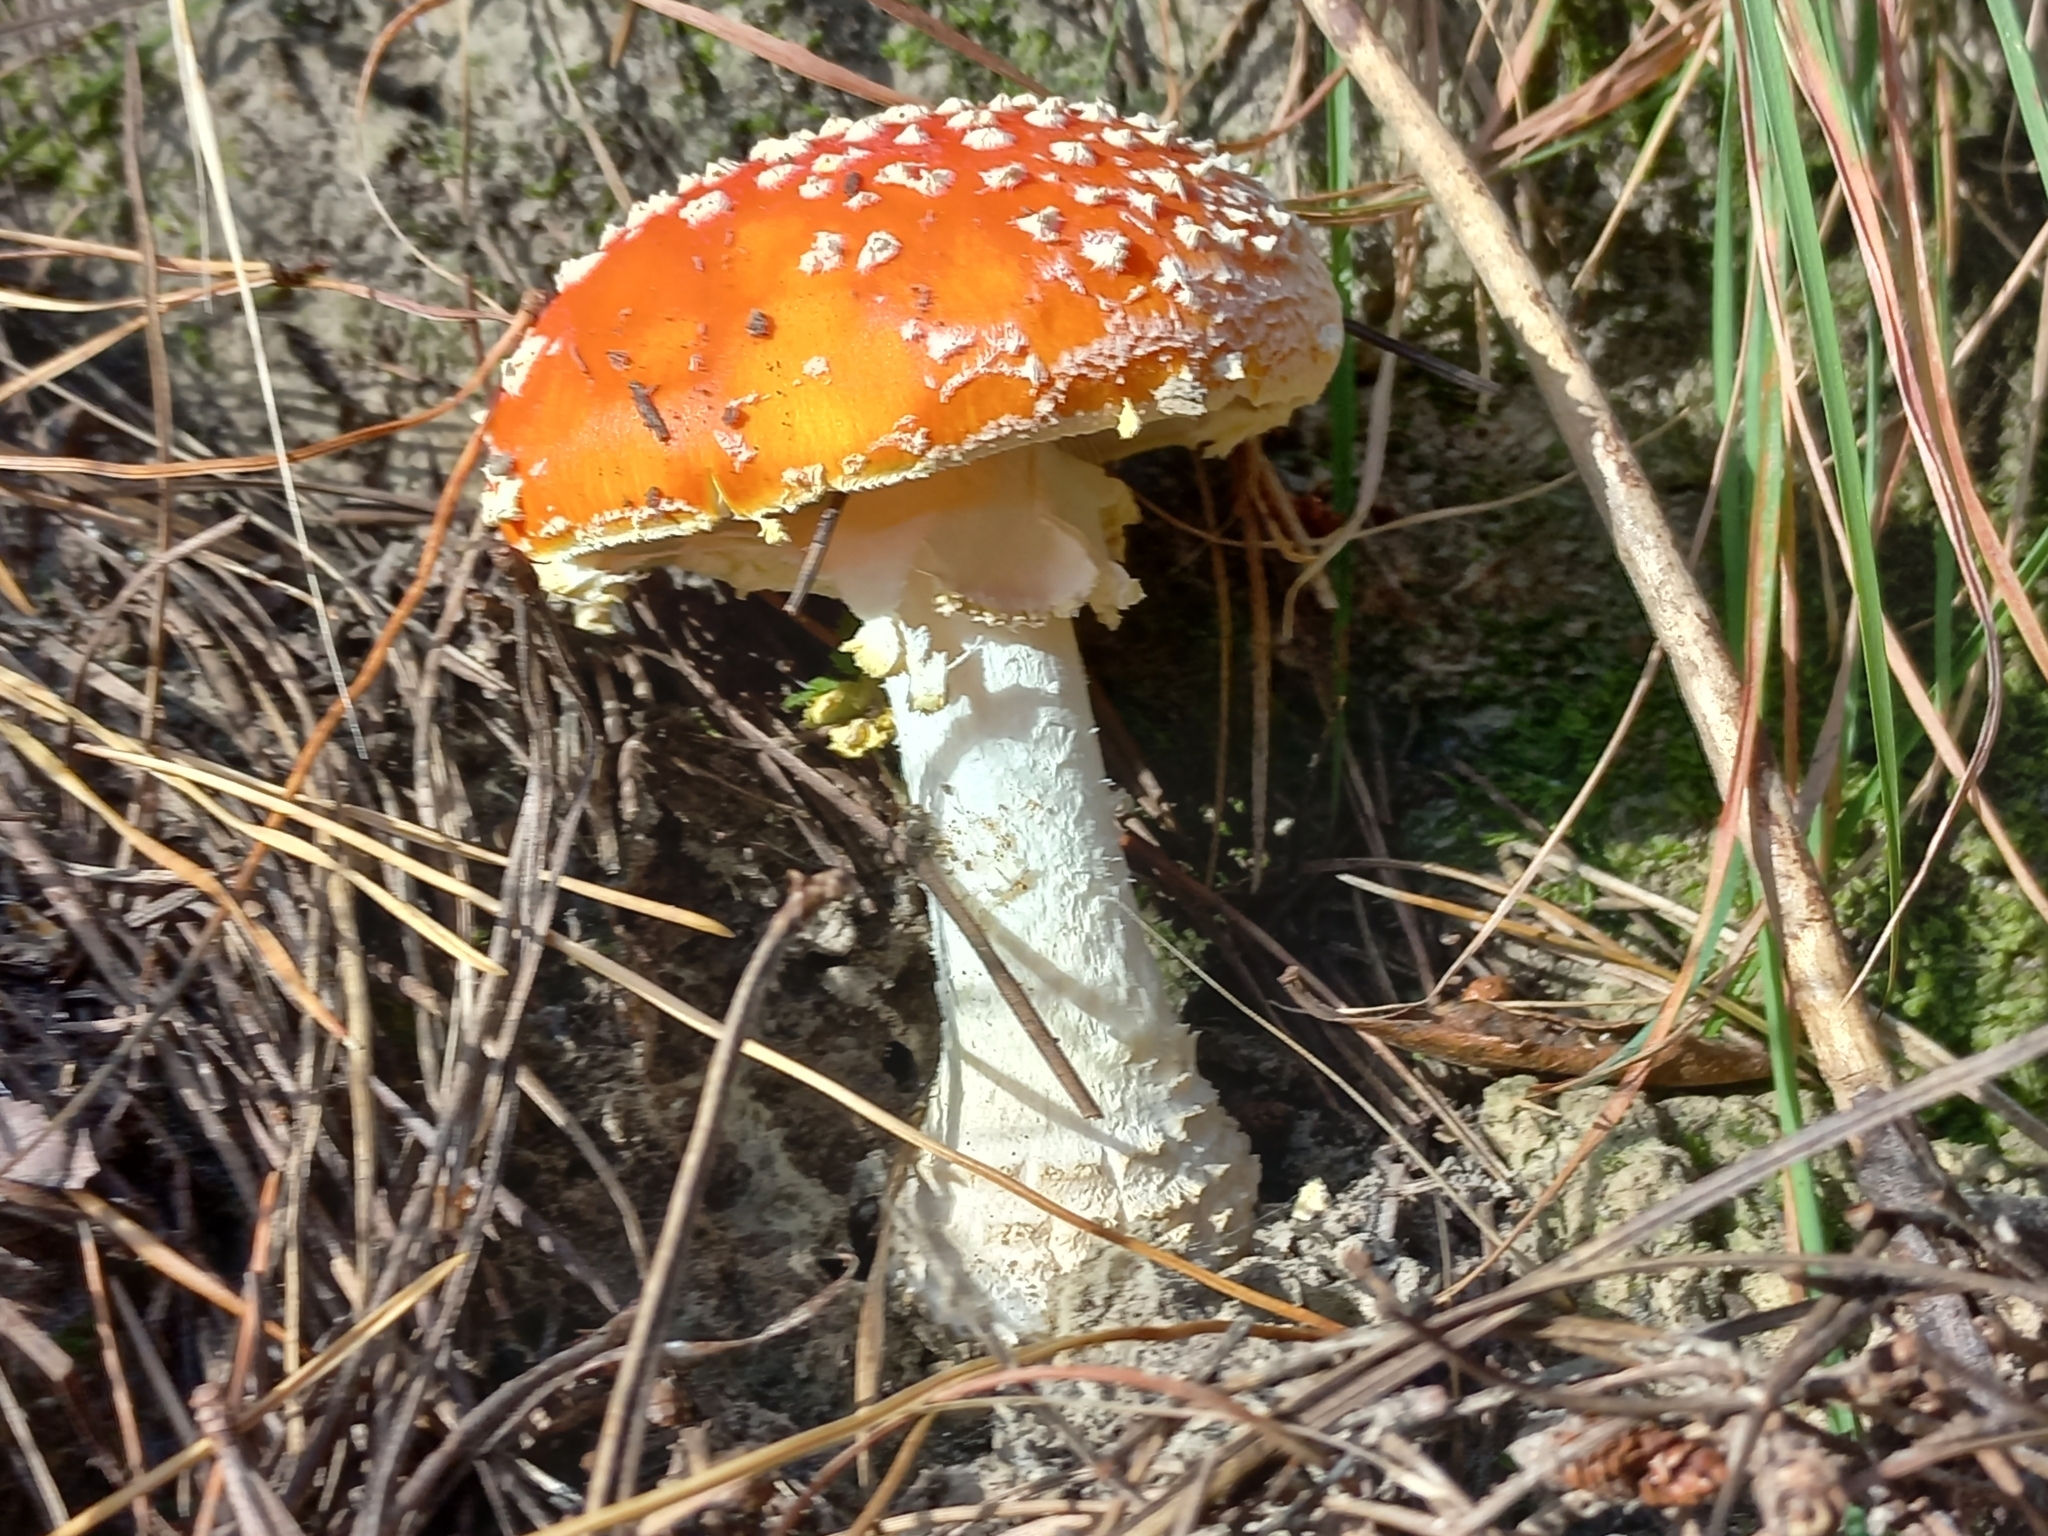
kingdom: Fungi
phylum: Basidiomycota
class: Agaricomycetes
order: Agaricales
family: Amanitaceae
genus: Amanita
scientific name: Amanita muscaria
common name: Fly agaric
